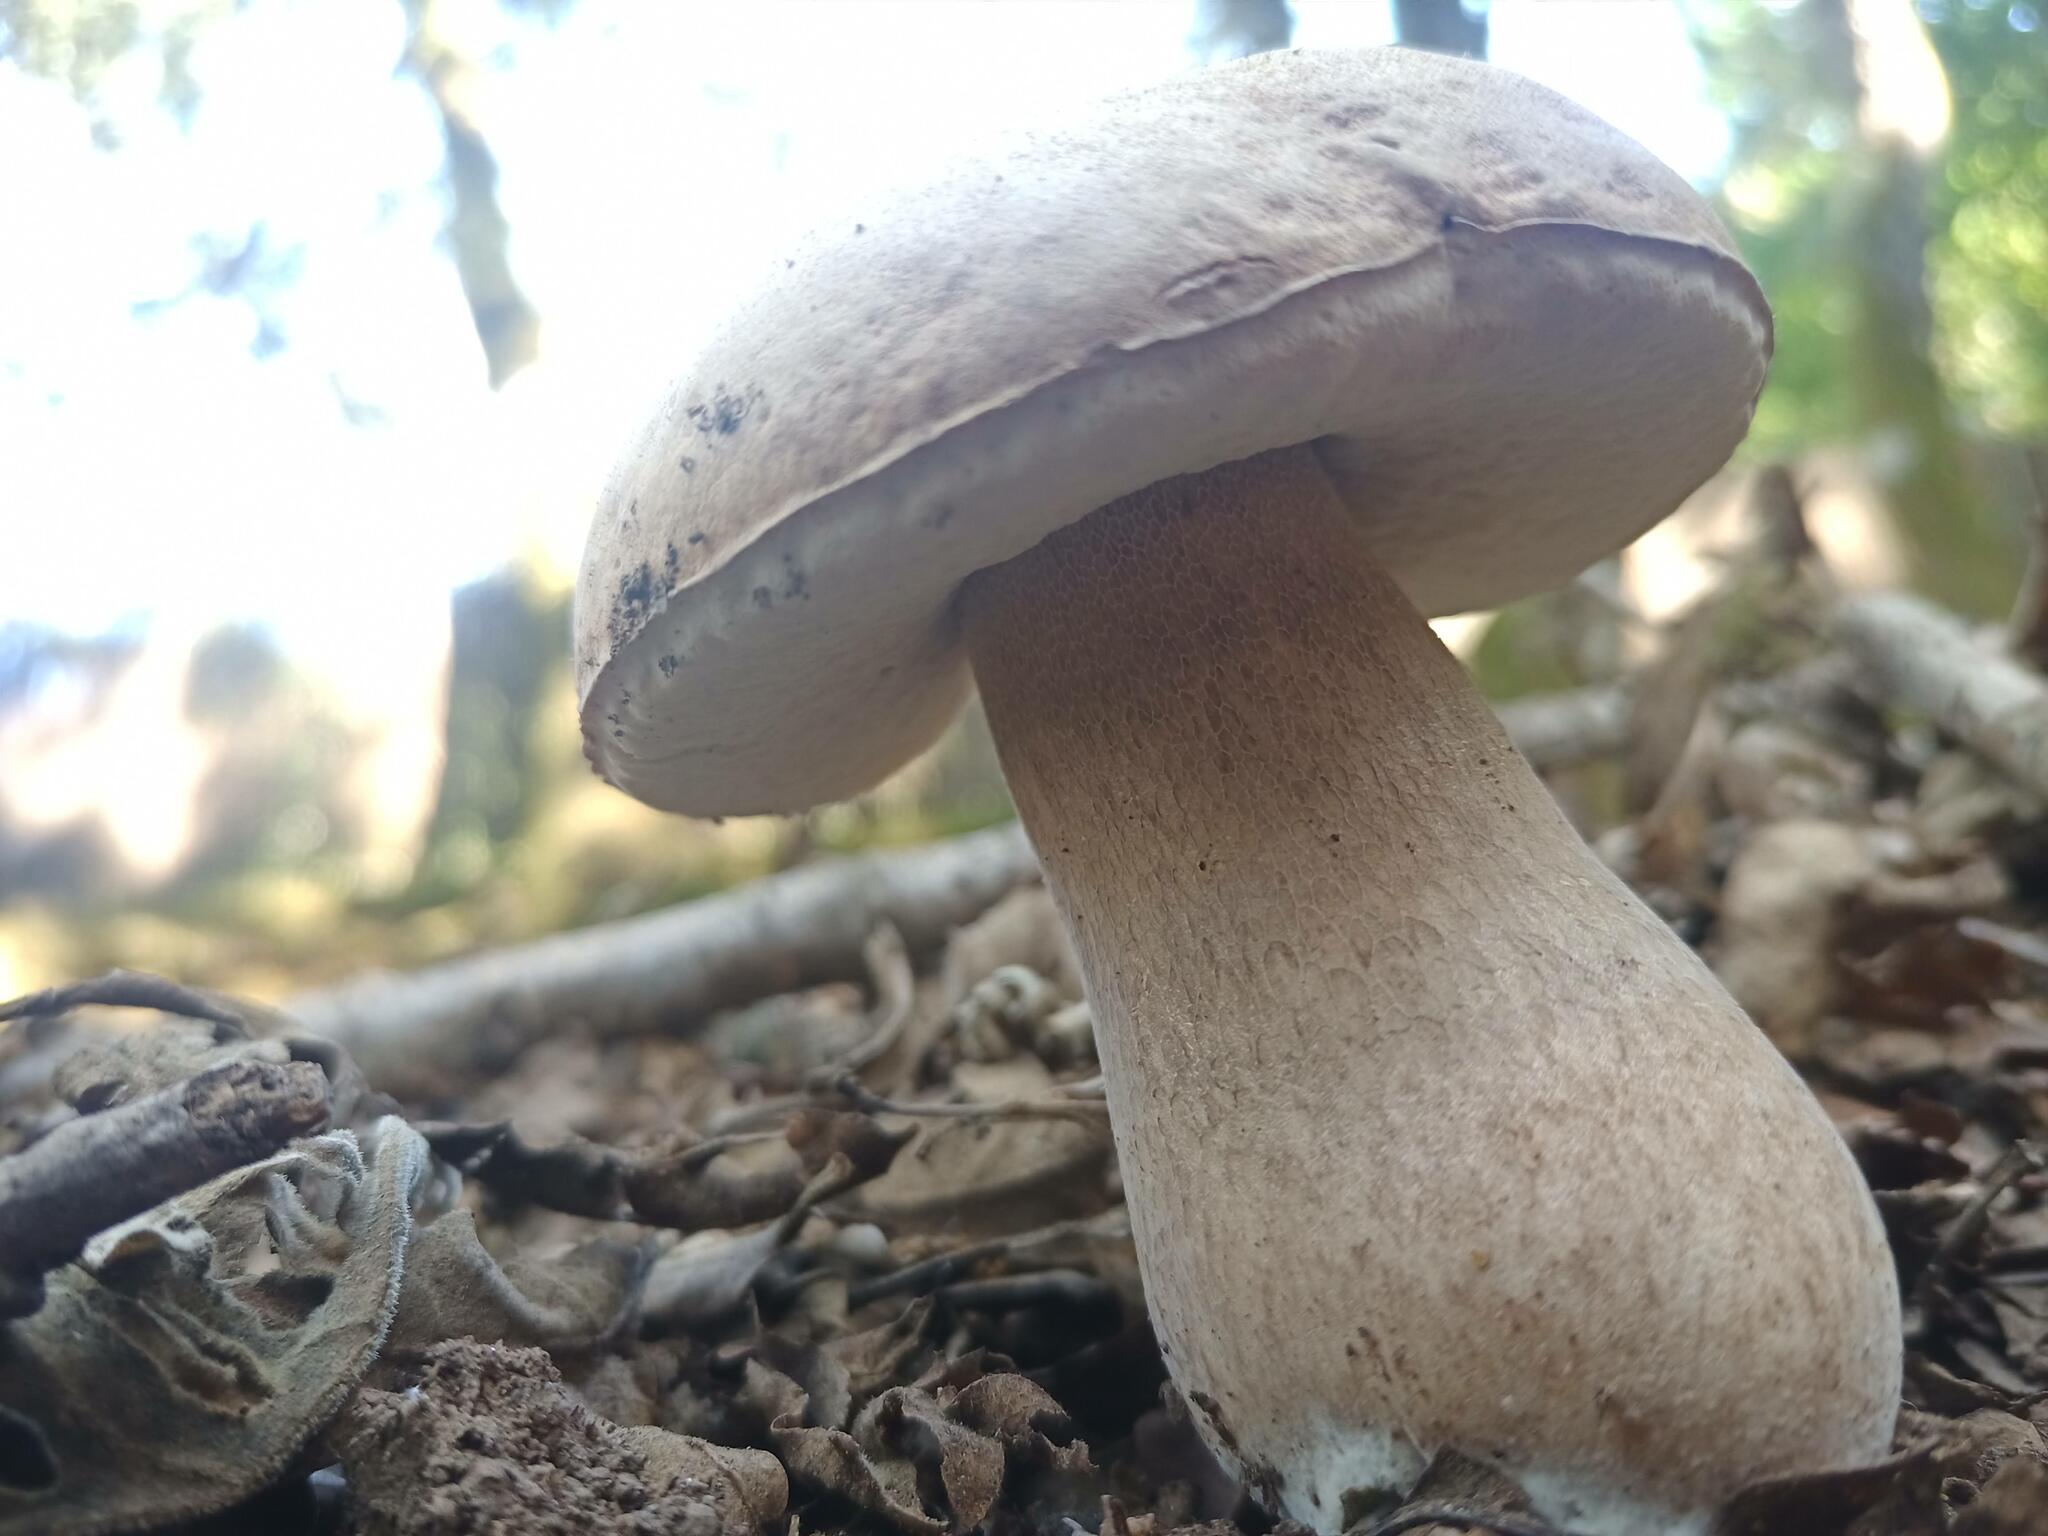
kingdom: Fungi
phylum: Basidiomycota
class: Agaricomycetes
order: Boletales
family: Boletaceae
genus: Boletus
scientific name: Boletus reticulatus
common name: Summer bolete
